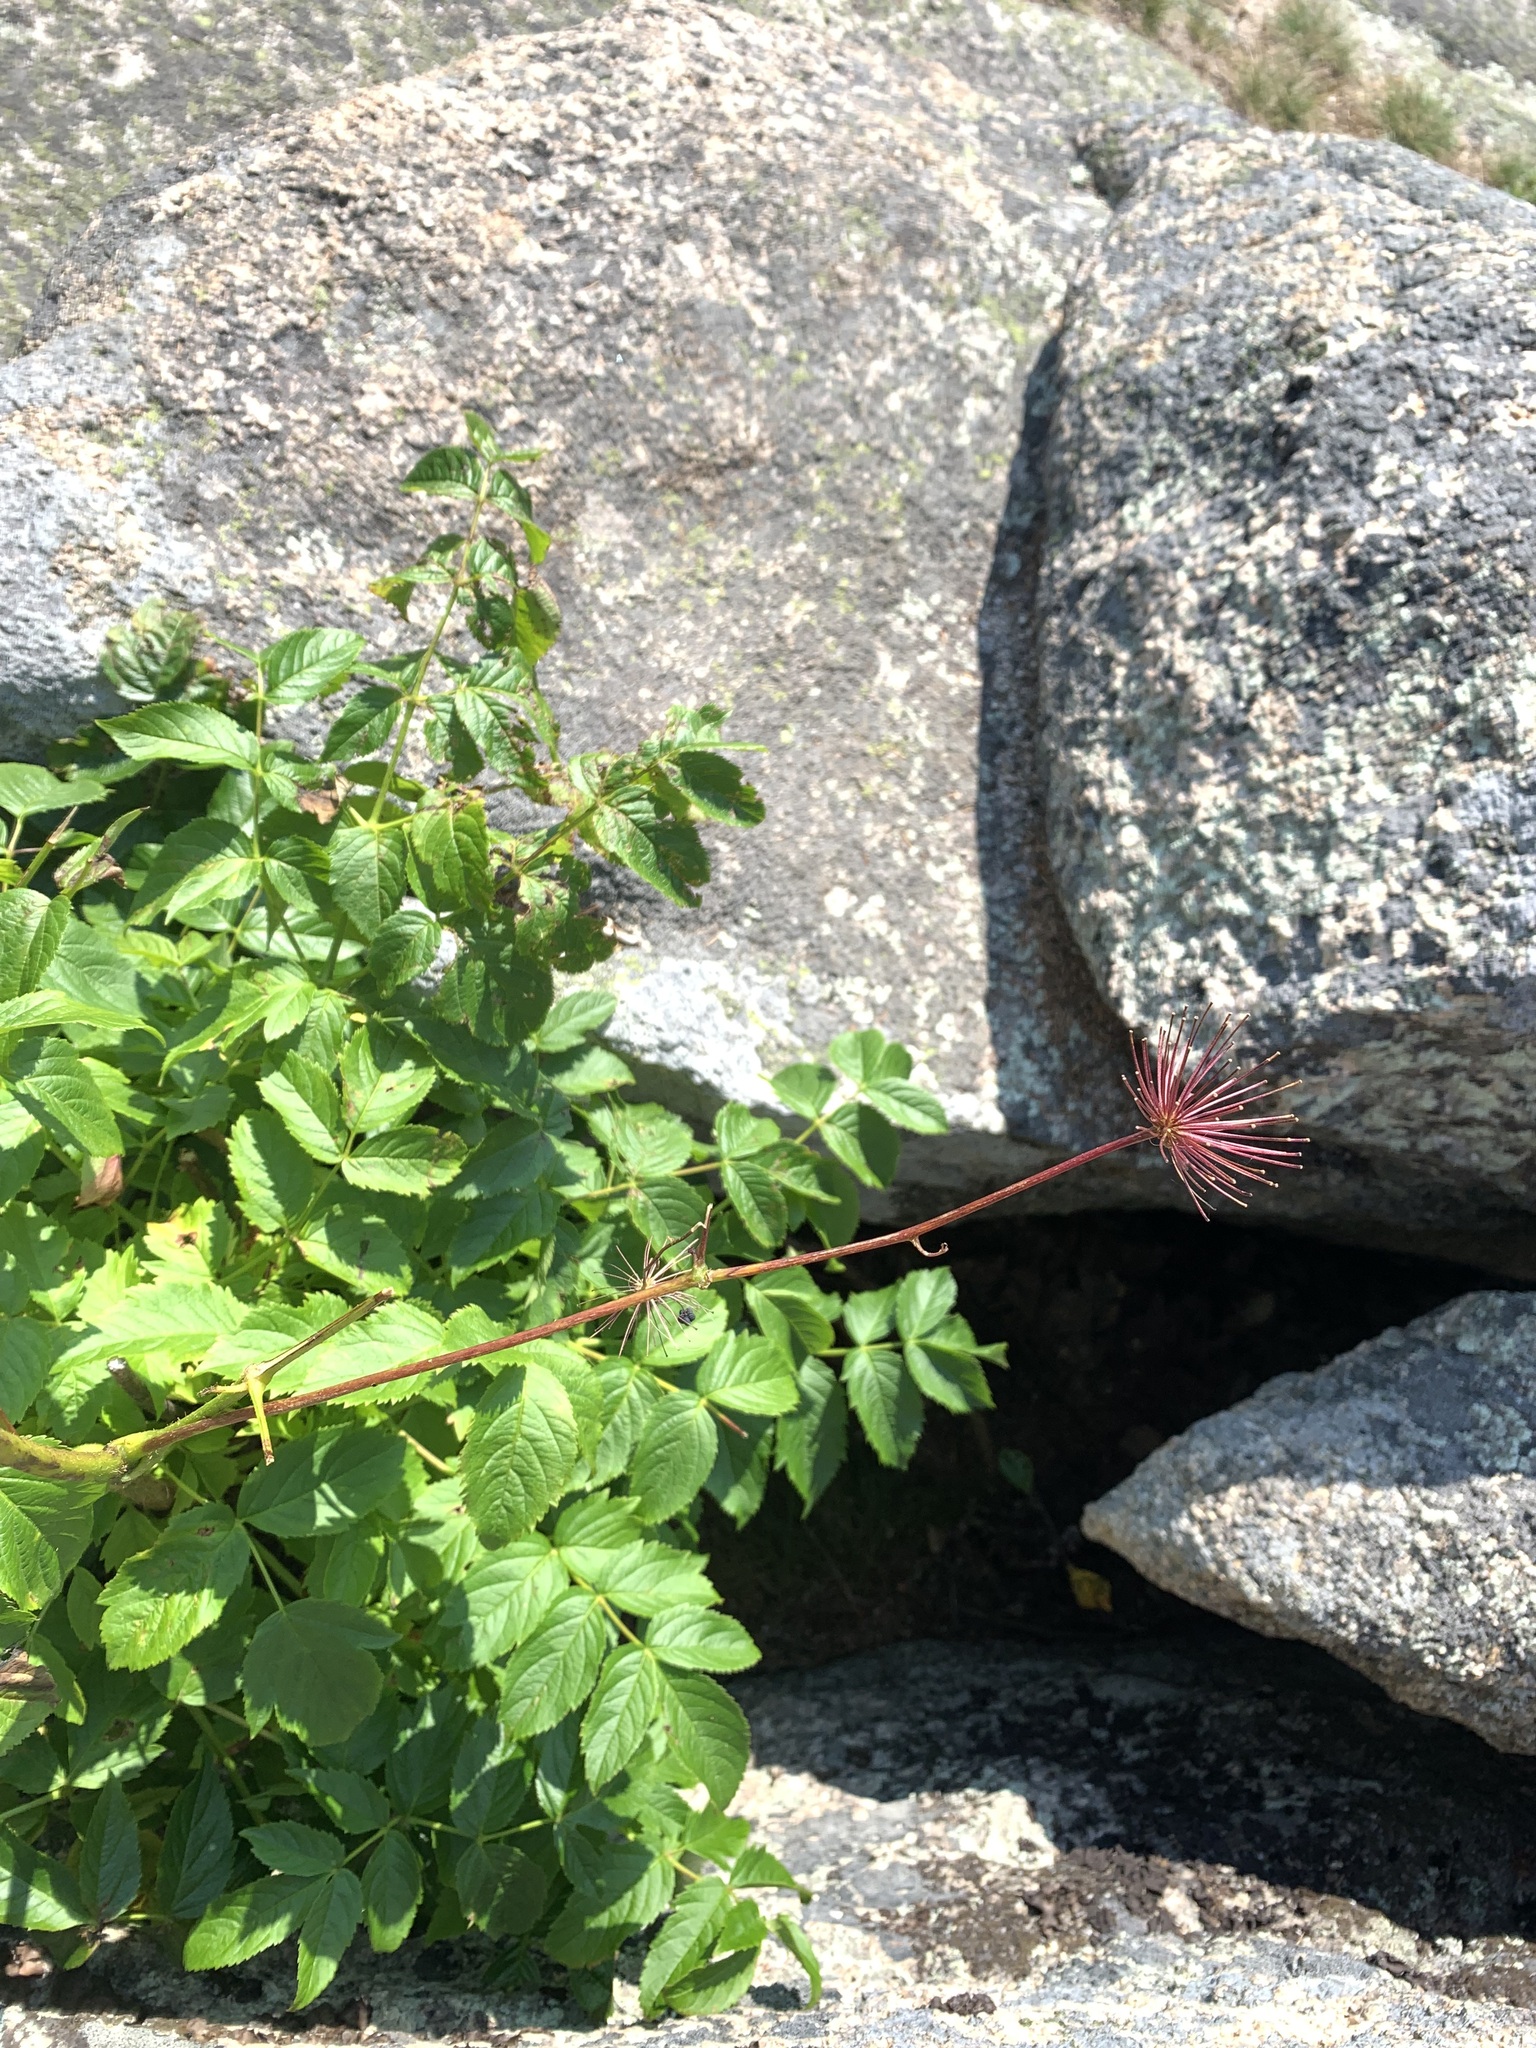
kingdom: Plantae
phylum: Tracheophyta
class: Magnoliopsida
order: Apiales
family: Araliaceae
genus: Aralia
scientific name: Aralia hispida
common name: Bristly sarsaparilla
